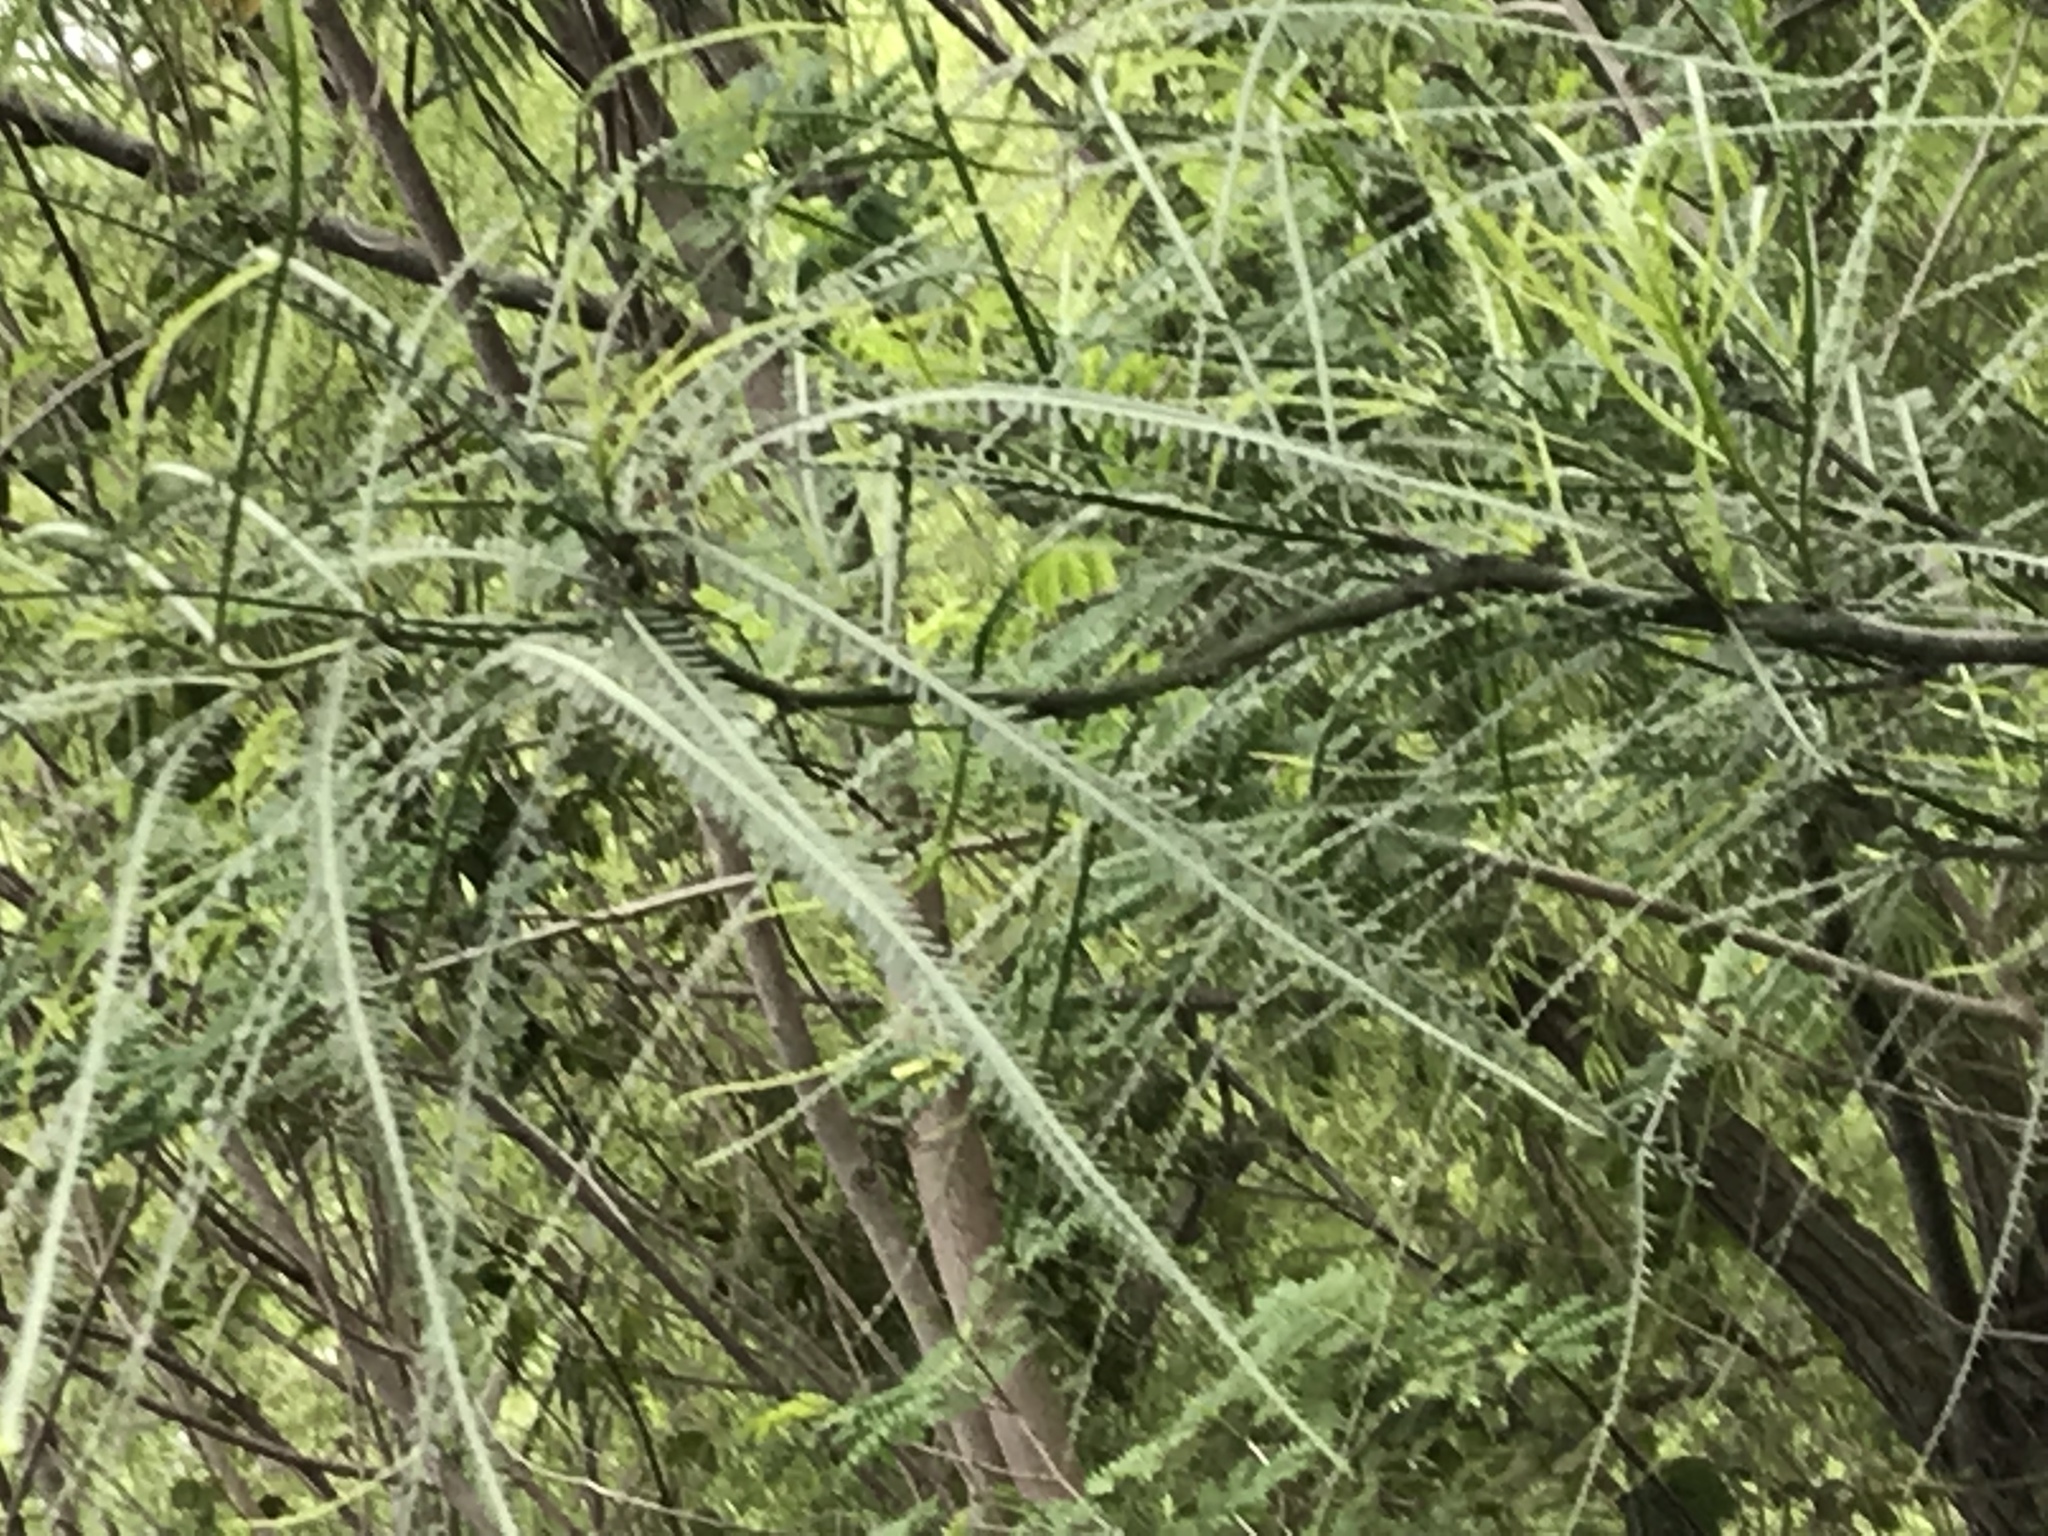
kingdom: Plantae
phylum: Tracheophyta
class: Magnoliopsida
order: Fabales
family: Fabaceae
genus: Parkinsonia
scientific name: Parkinsonia aculeata
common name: Jerusalem thorn
